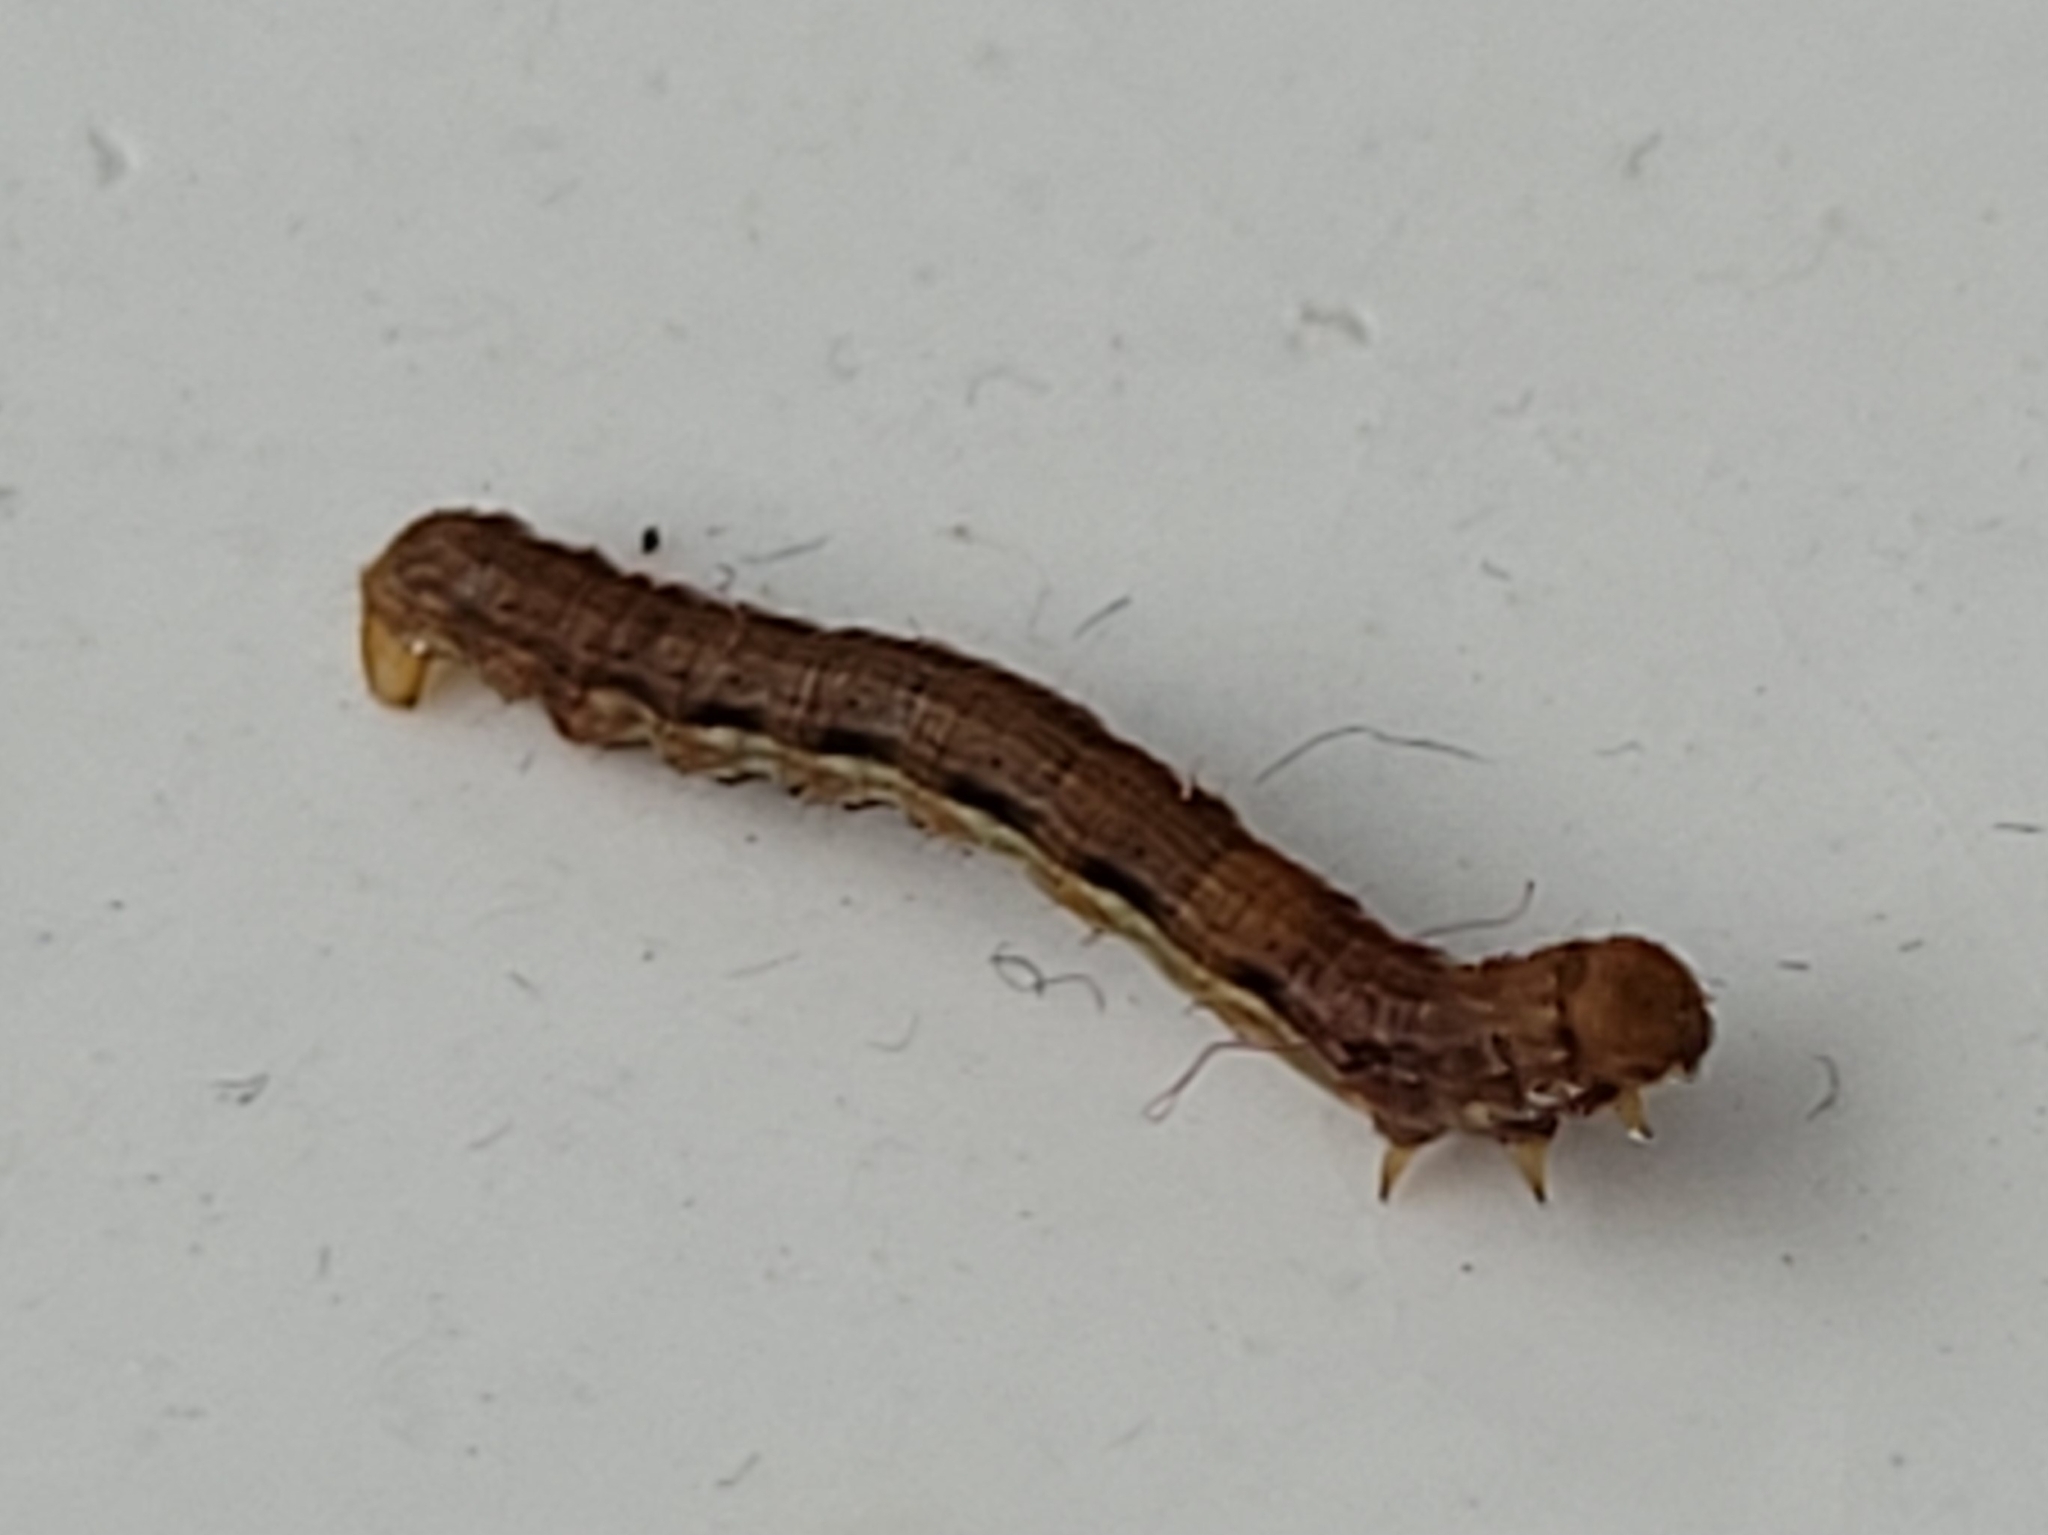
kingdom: Animalia
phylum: Arthropoda
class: Insecta
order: Lepidoptera
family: Geometridae
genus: Erannis
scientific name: Erannis defoliaria
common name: Mottled umber
